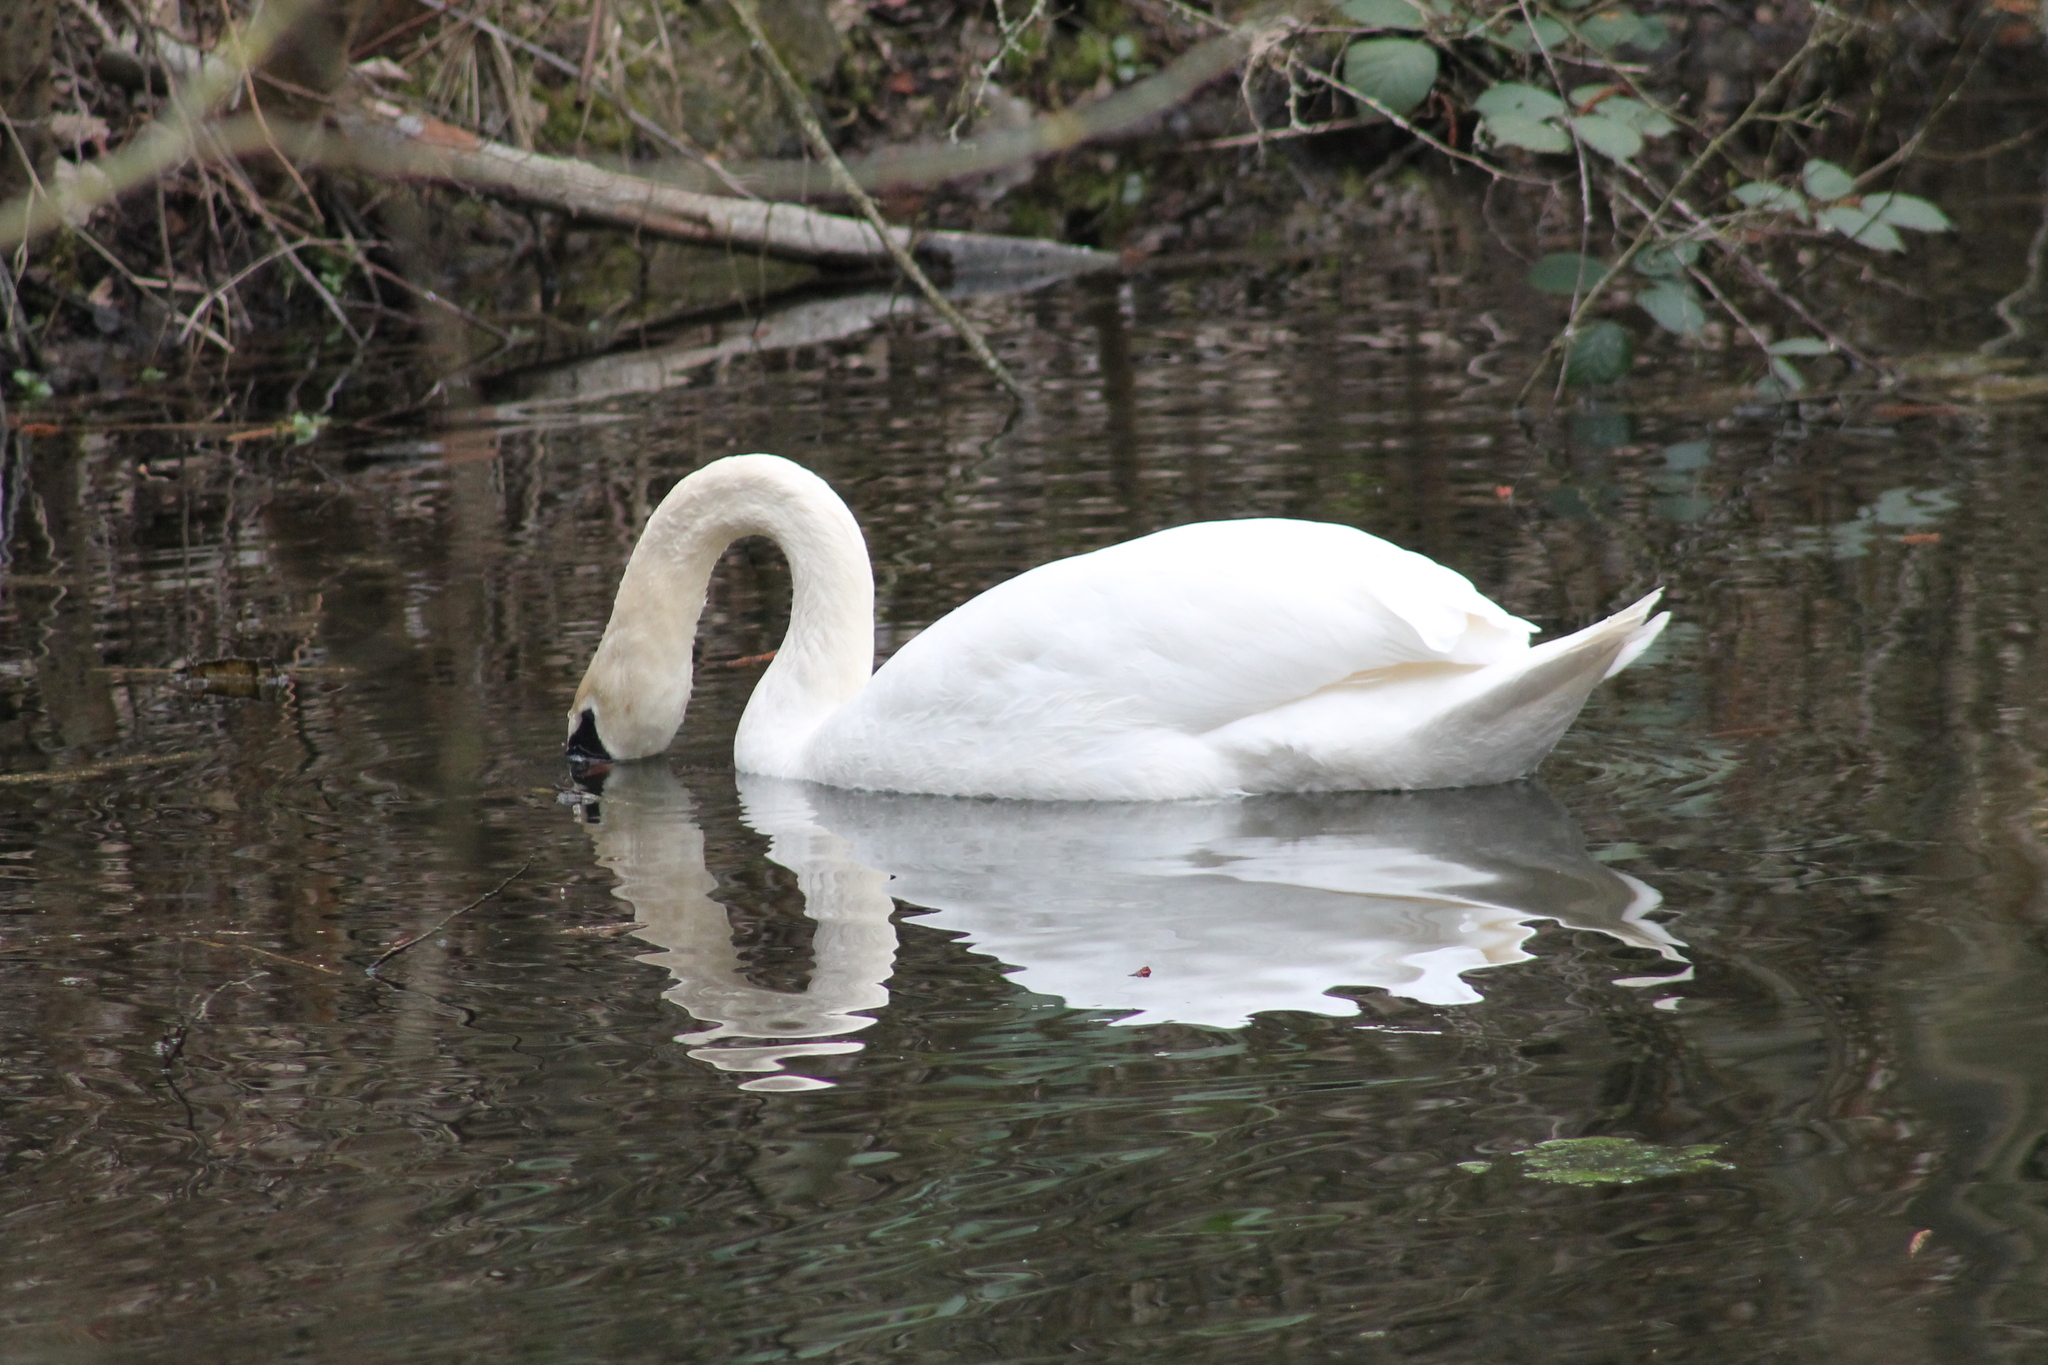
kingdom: Animalia
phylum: Chordata
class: Aves
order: Anseriformes
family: Anatidae
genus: Cygnus
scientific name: Cygnus olor
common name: Mute swan
